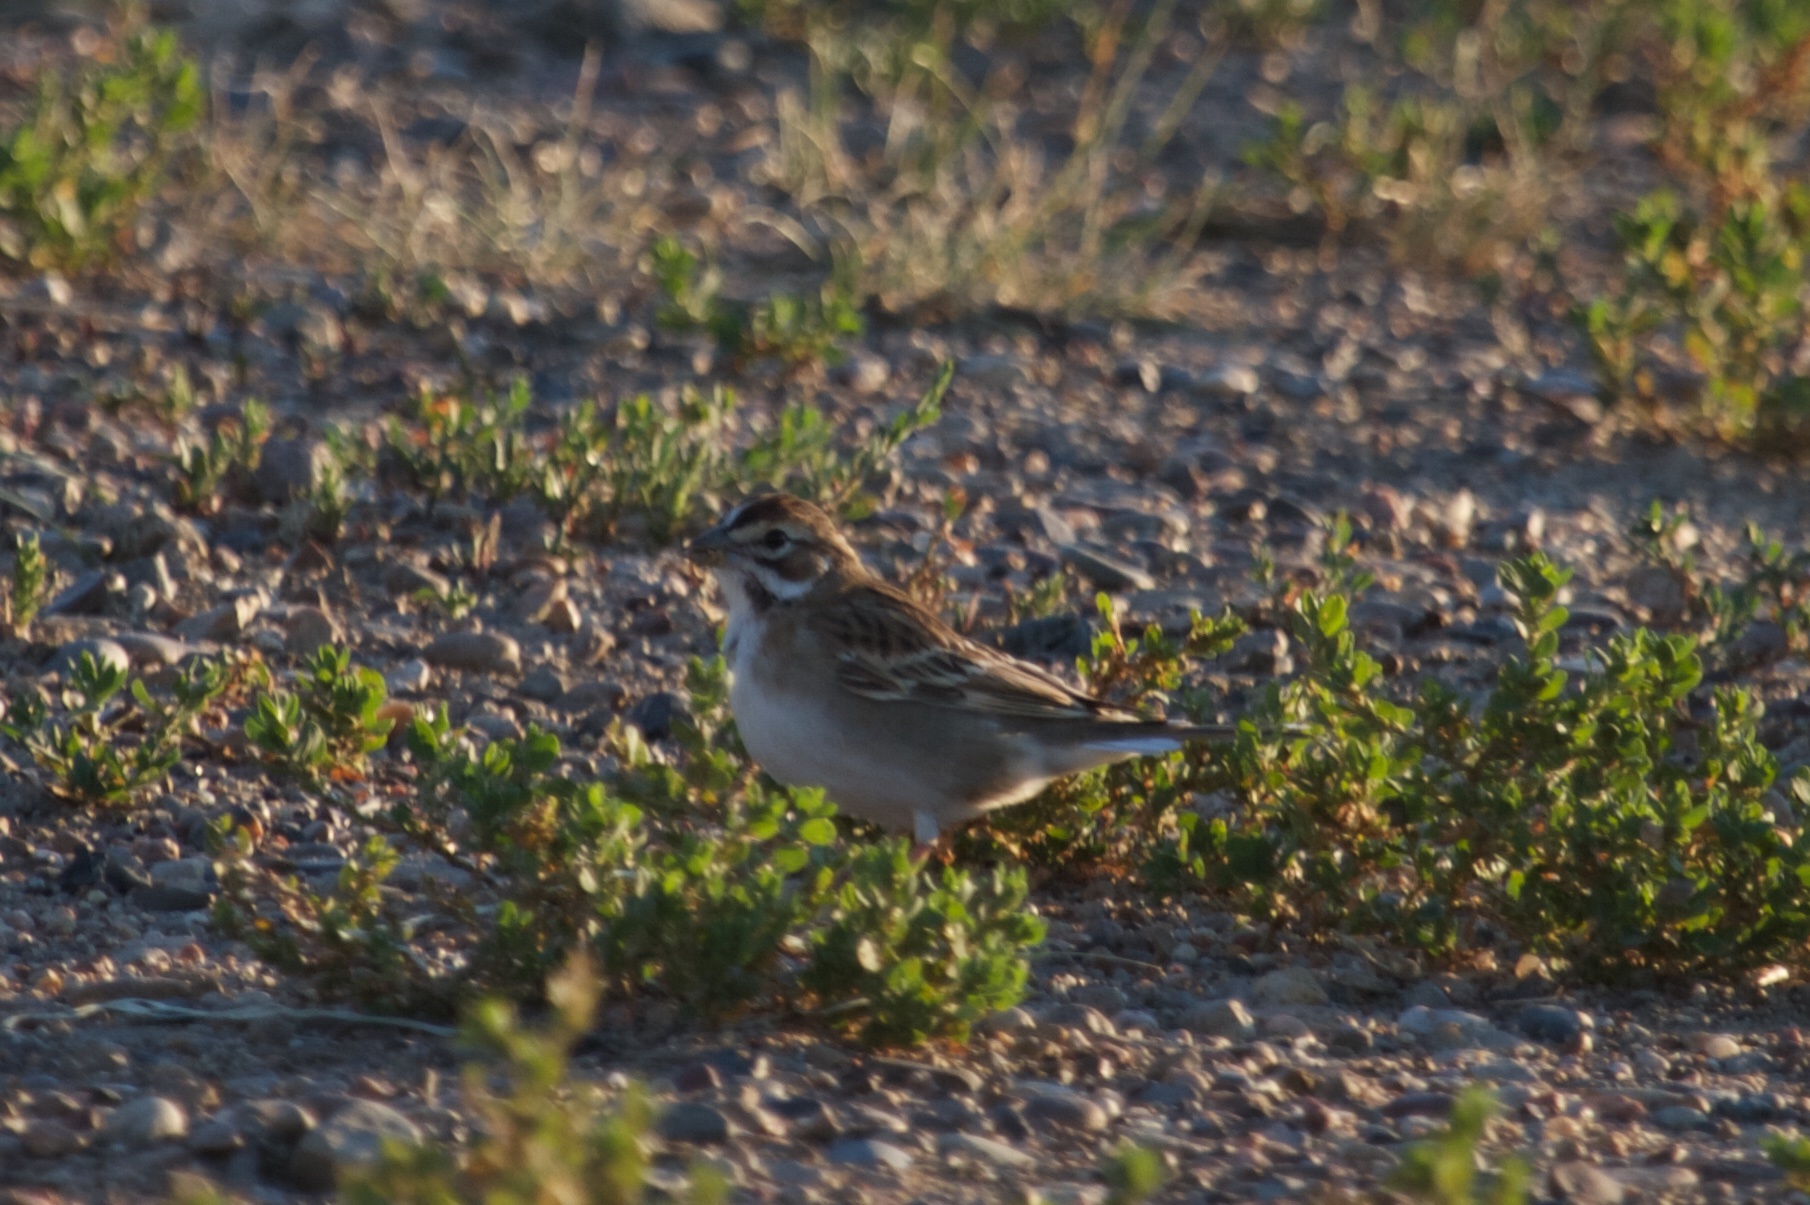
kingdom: Animalia
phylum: Chordata
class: Aves
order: Passeriformes
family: Passerellidae
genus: Chondestes
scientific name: Chondestes grammacus
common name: Lark sparrow
